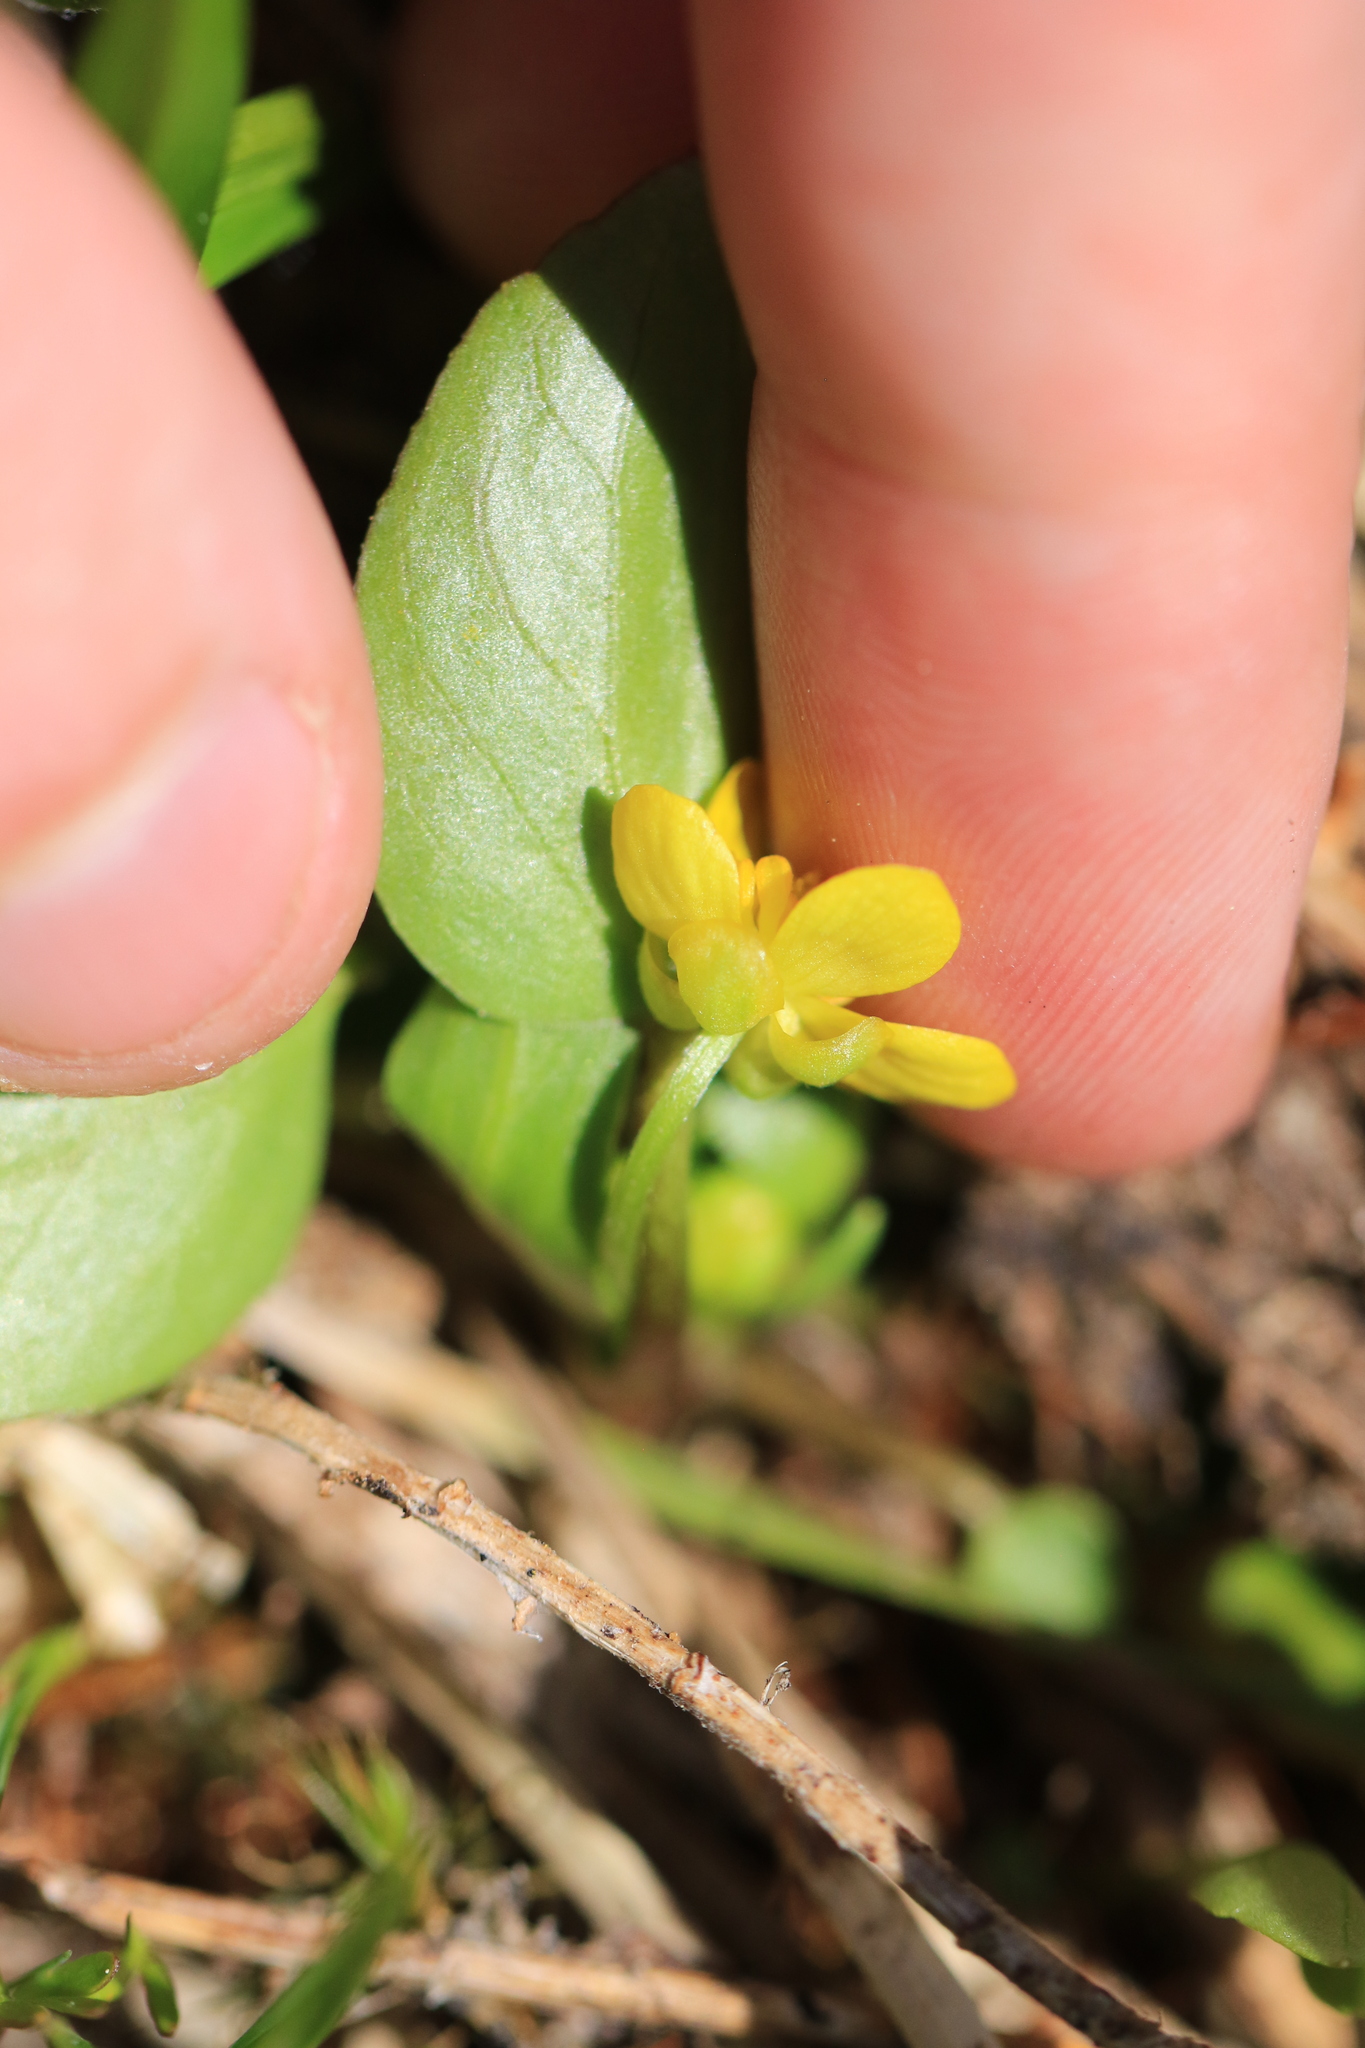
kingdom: Plantae
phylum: Tracheophyta
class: Magnoliopsida
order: Ranunculales
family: Ranunculaceae
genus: Ranunculus
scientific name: Ranunculus populago
